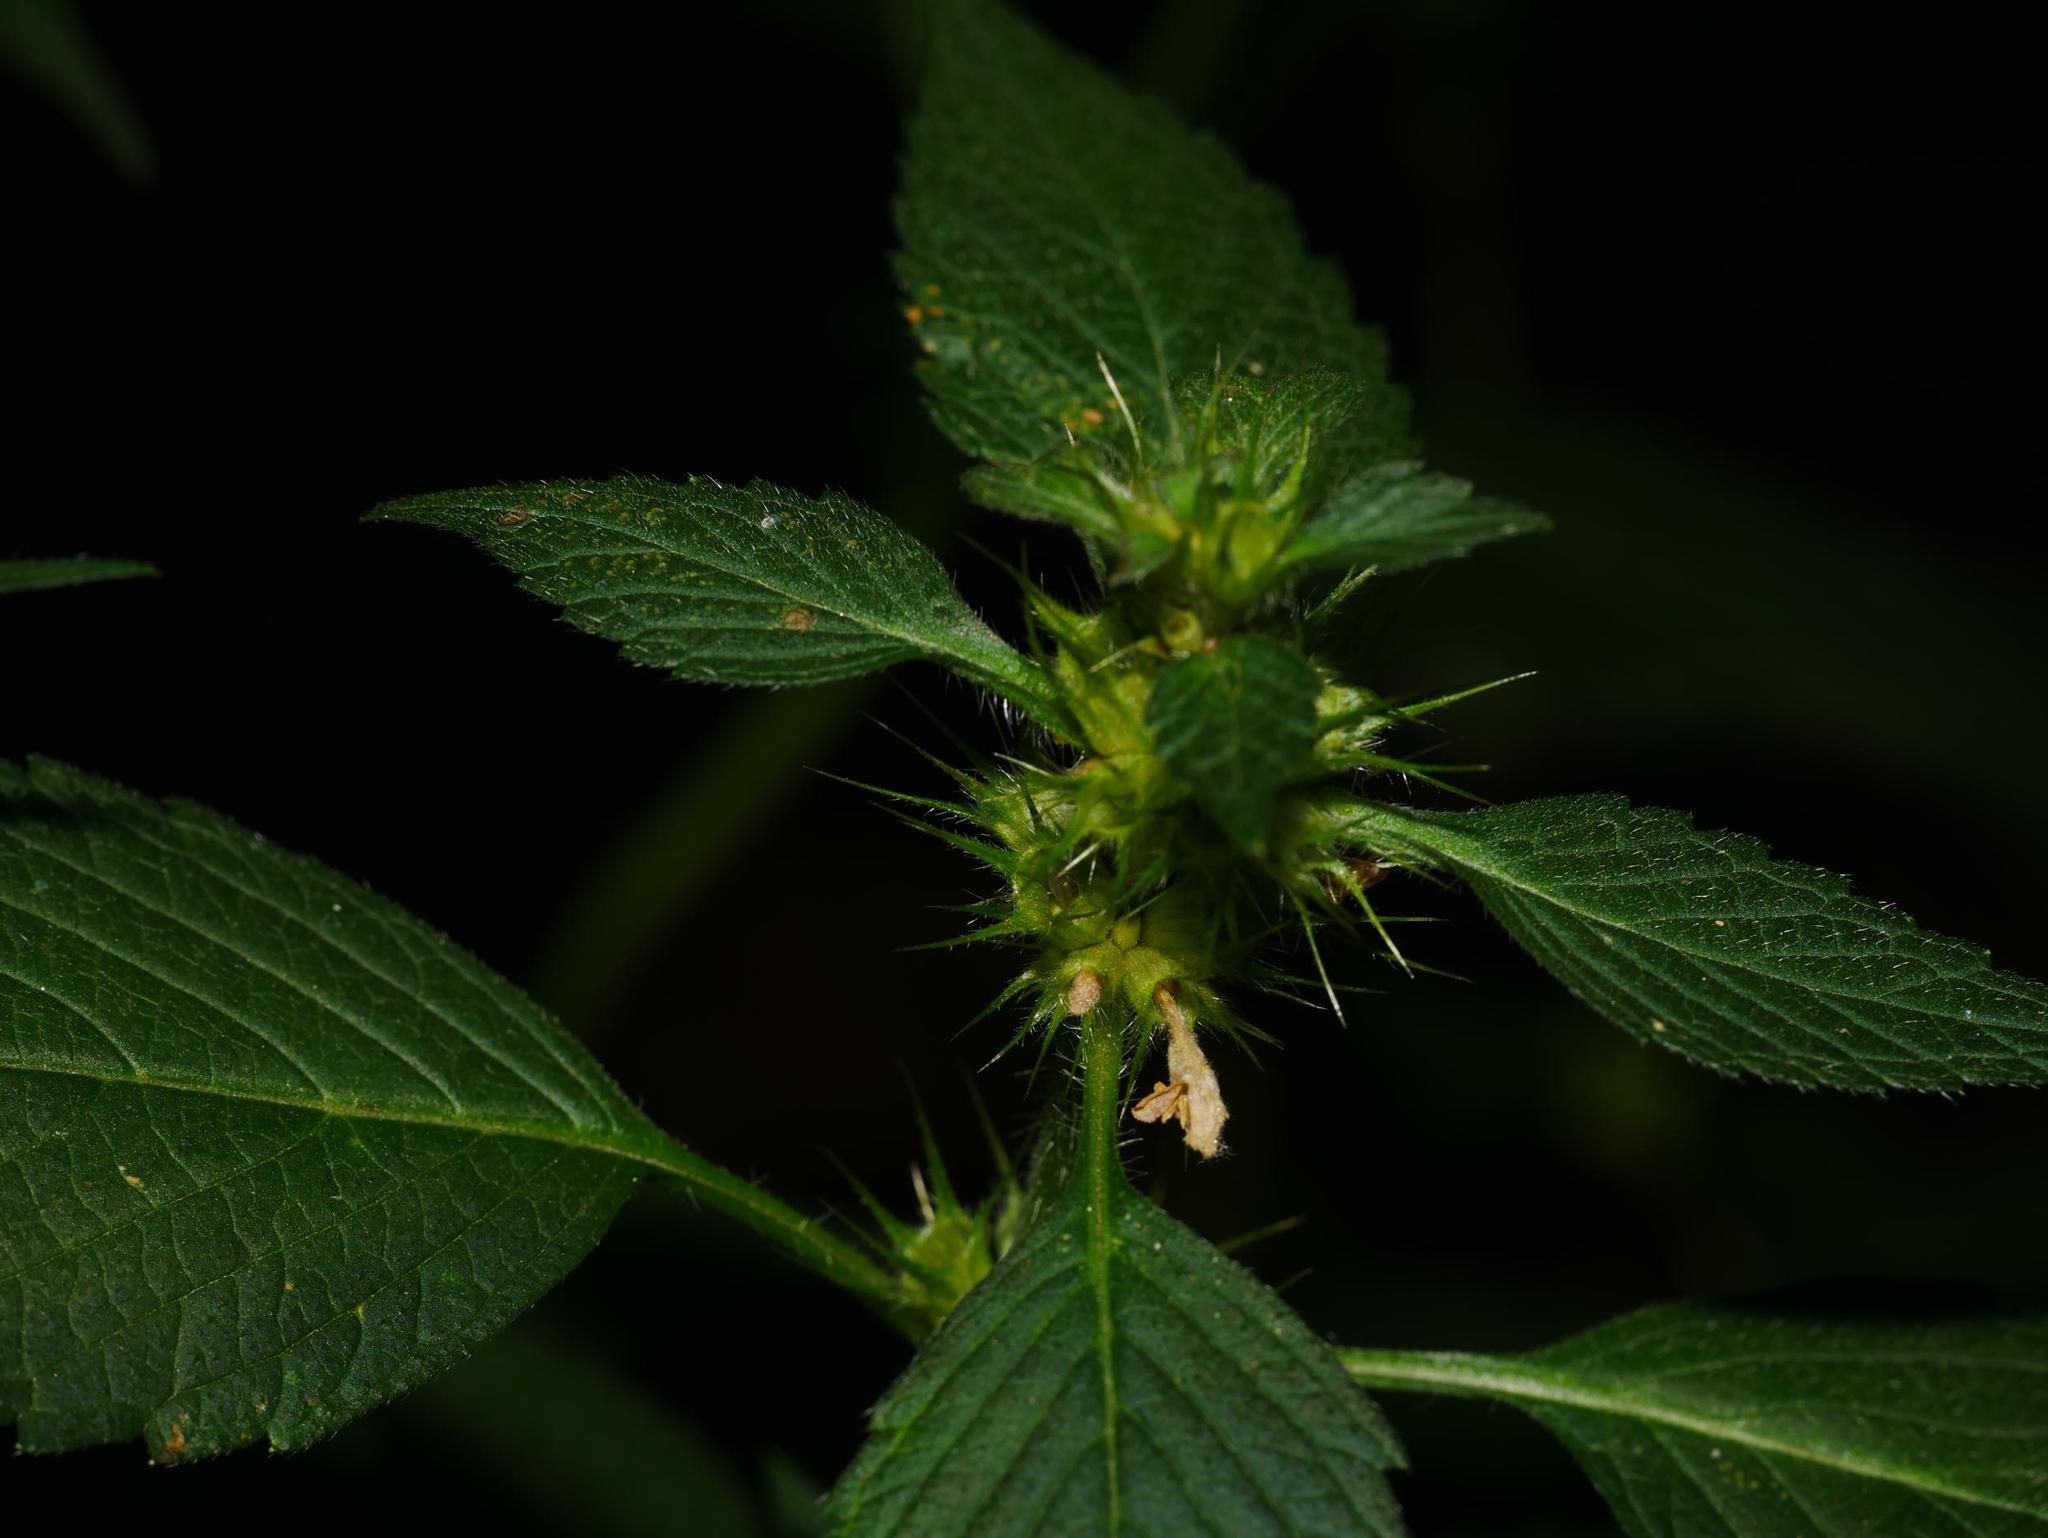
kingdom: Plantae
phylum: Tracheophyta
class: Magnoliopsida
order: Lamiales
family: Lamiaceae
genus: Galeopsis
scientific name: Galeopsis tetrahit
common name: Common hemp-nettle
